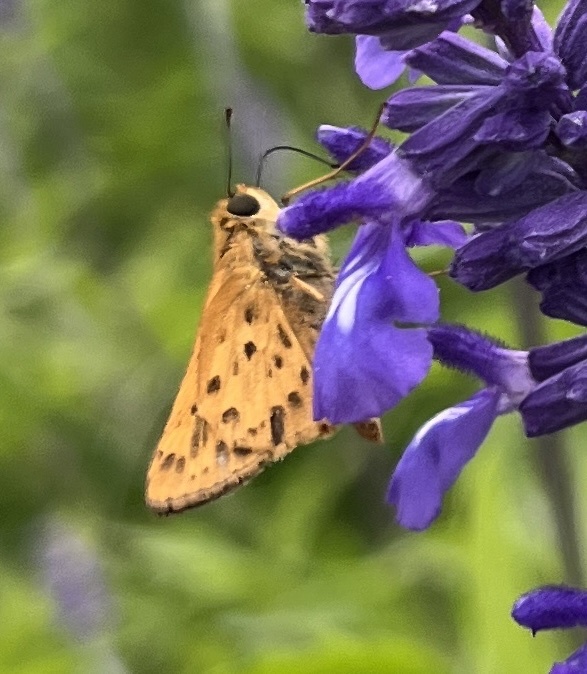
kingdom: Animalia
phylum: Arthropoda
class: Insecta
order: Lepidoptera
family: Hesperiidae
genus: Hylephila
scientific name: Hylephila phyleus
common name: Fiery skipper
